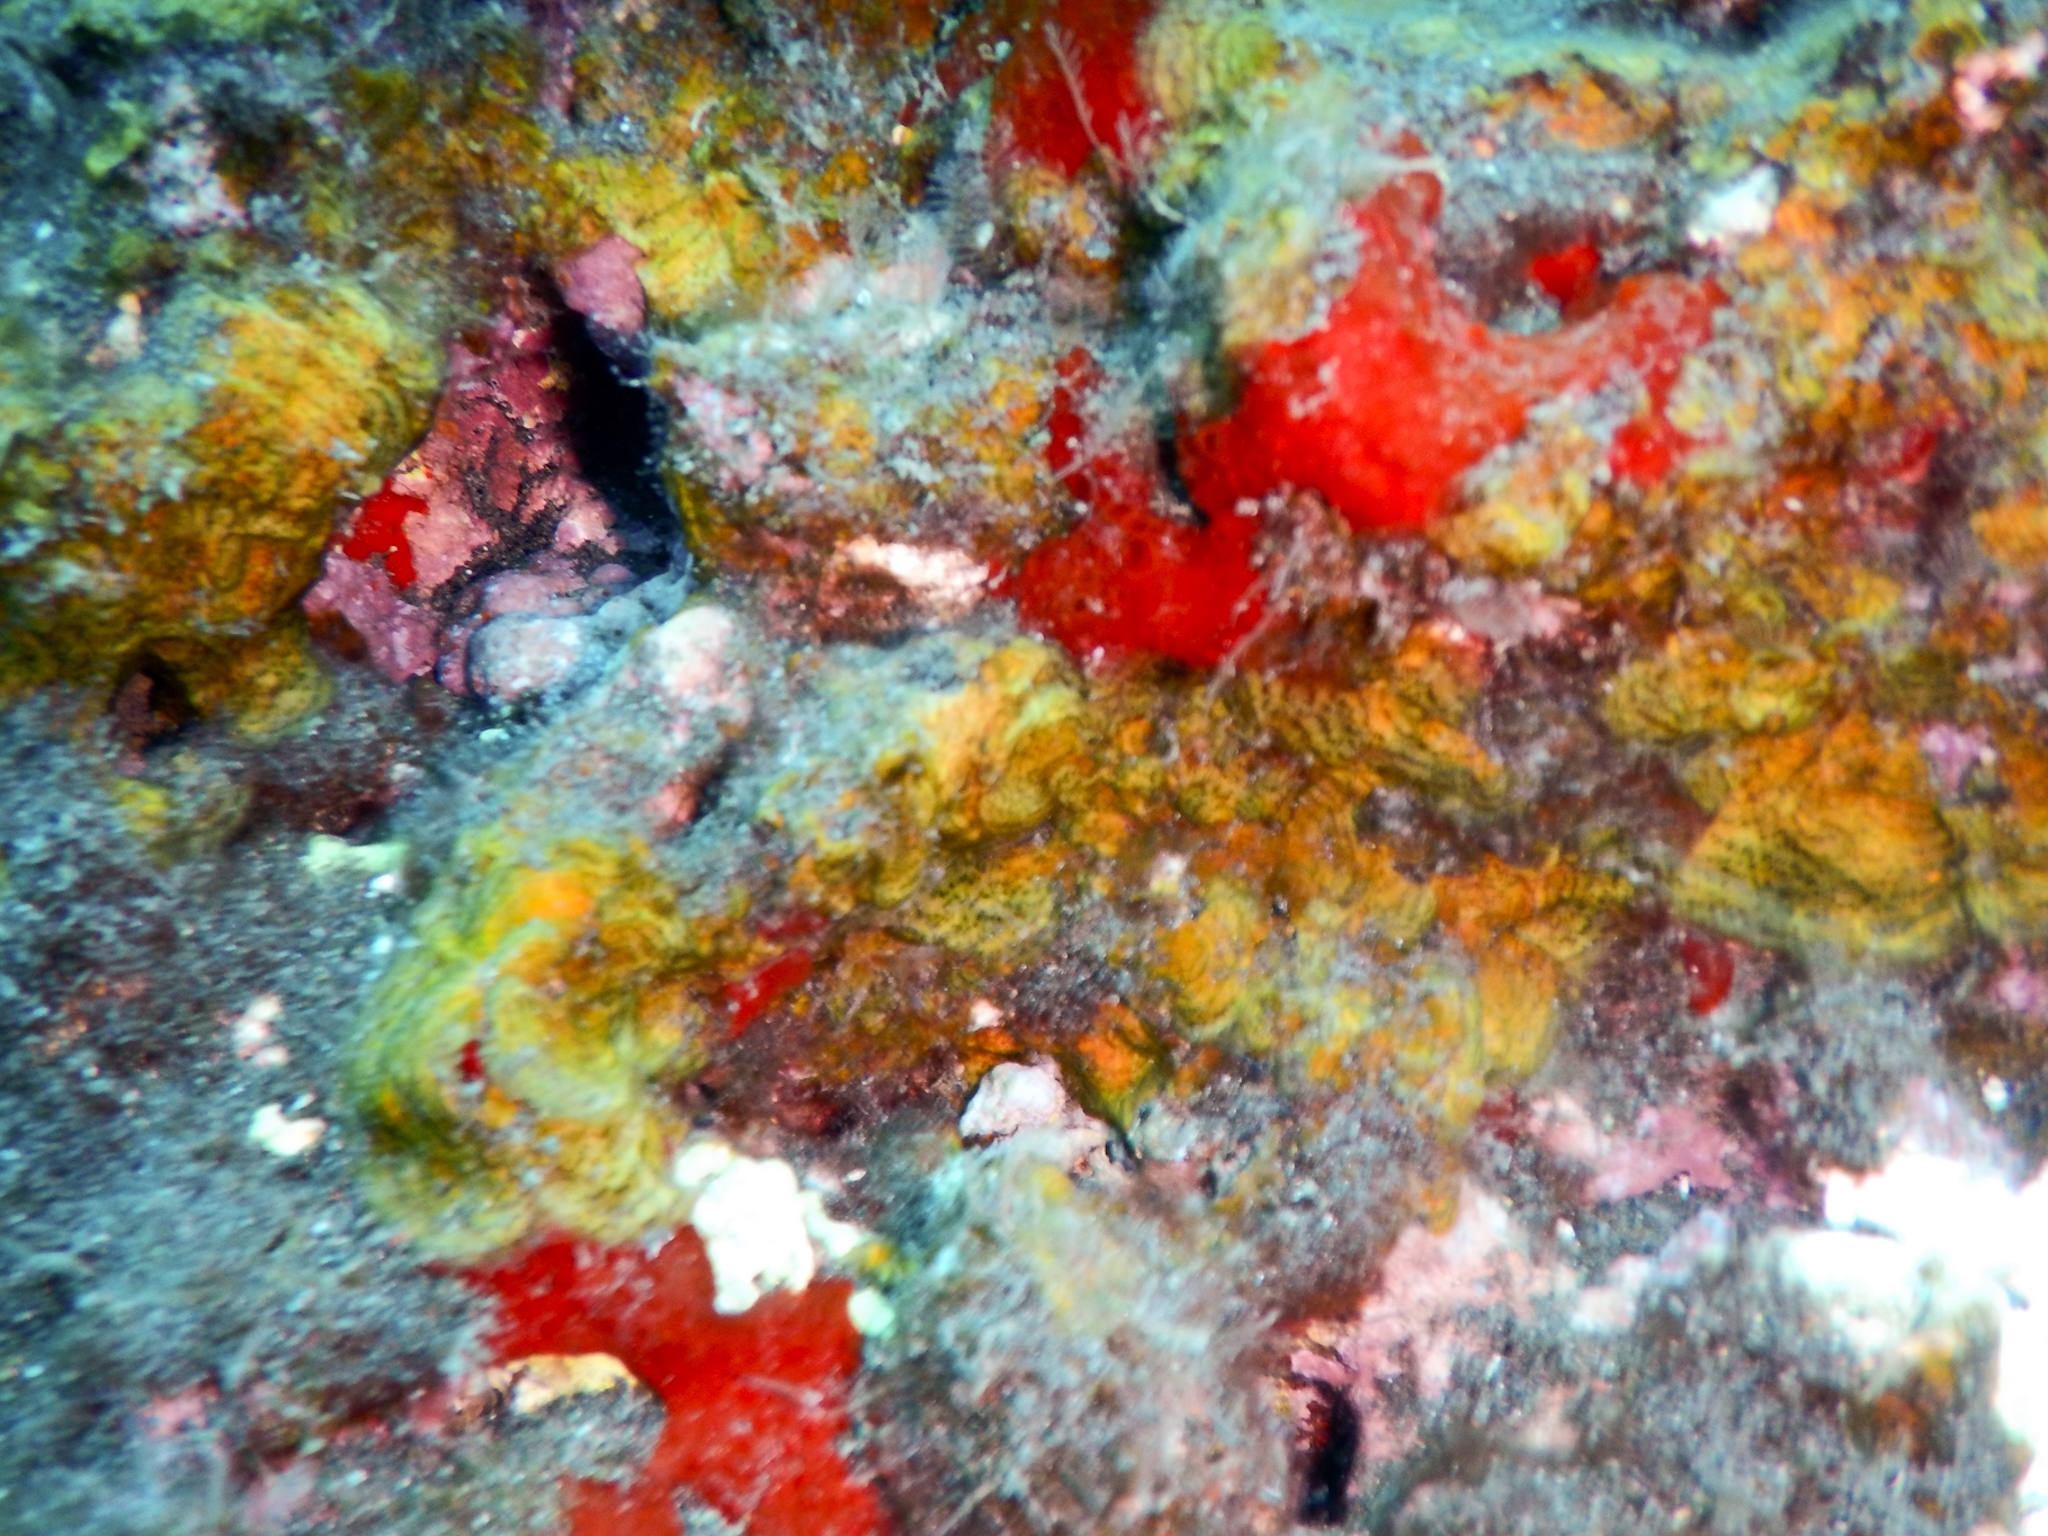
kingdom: Chromista
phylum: Ochrophyta
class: Phaeophyceae
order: Dictyotales
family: Dictyotaceae
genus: Lobophora
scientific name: Lobophora canariensis
